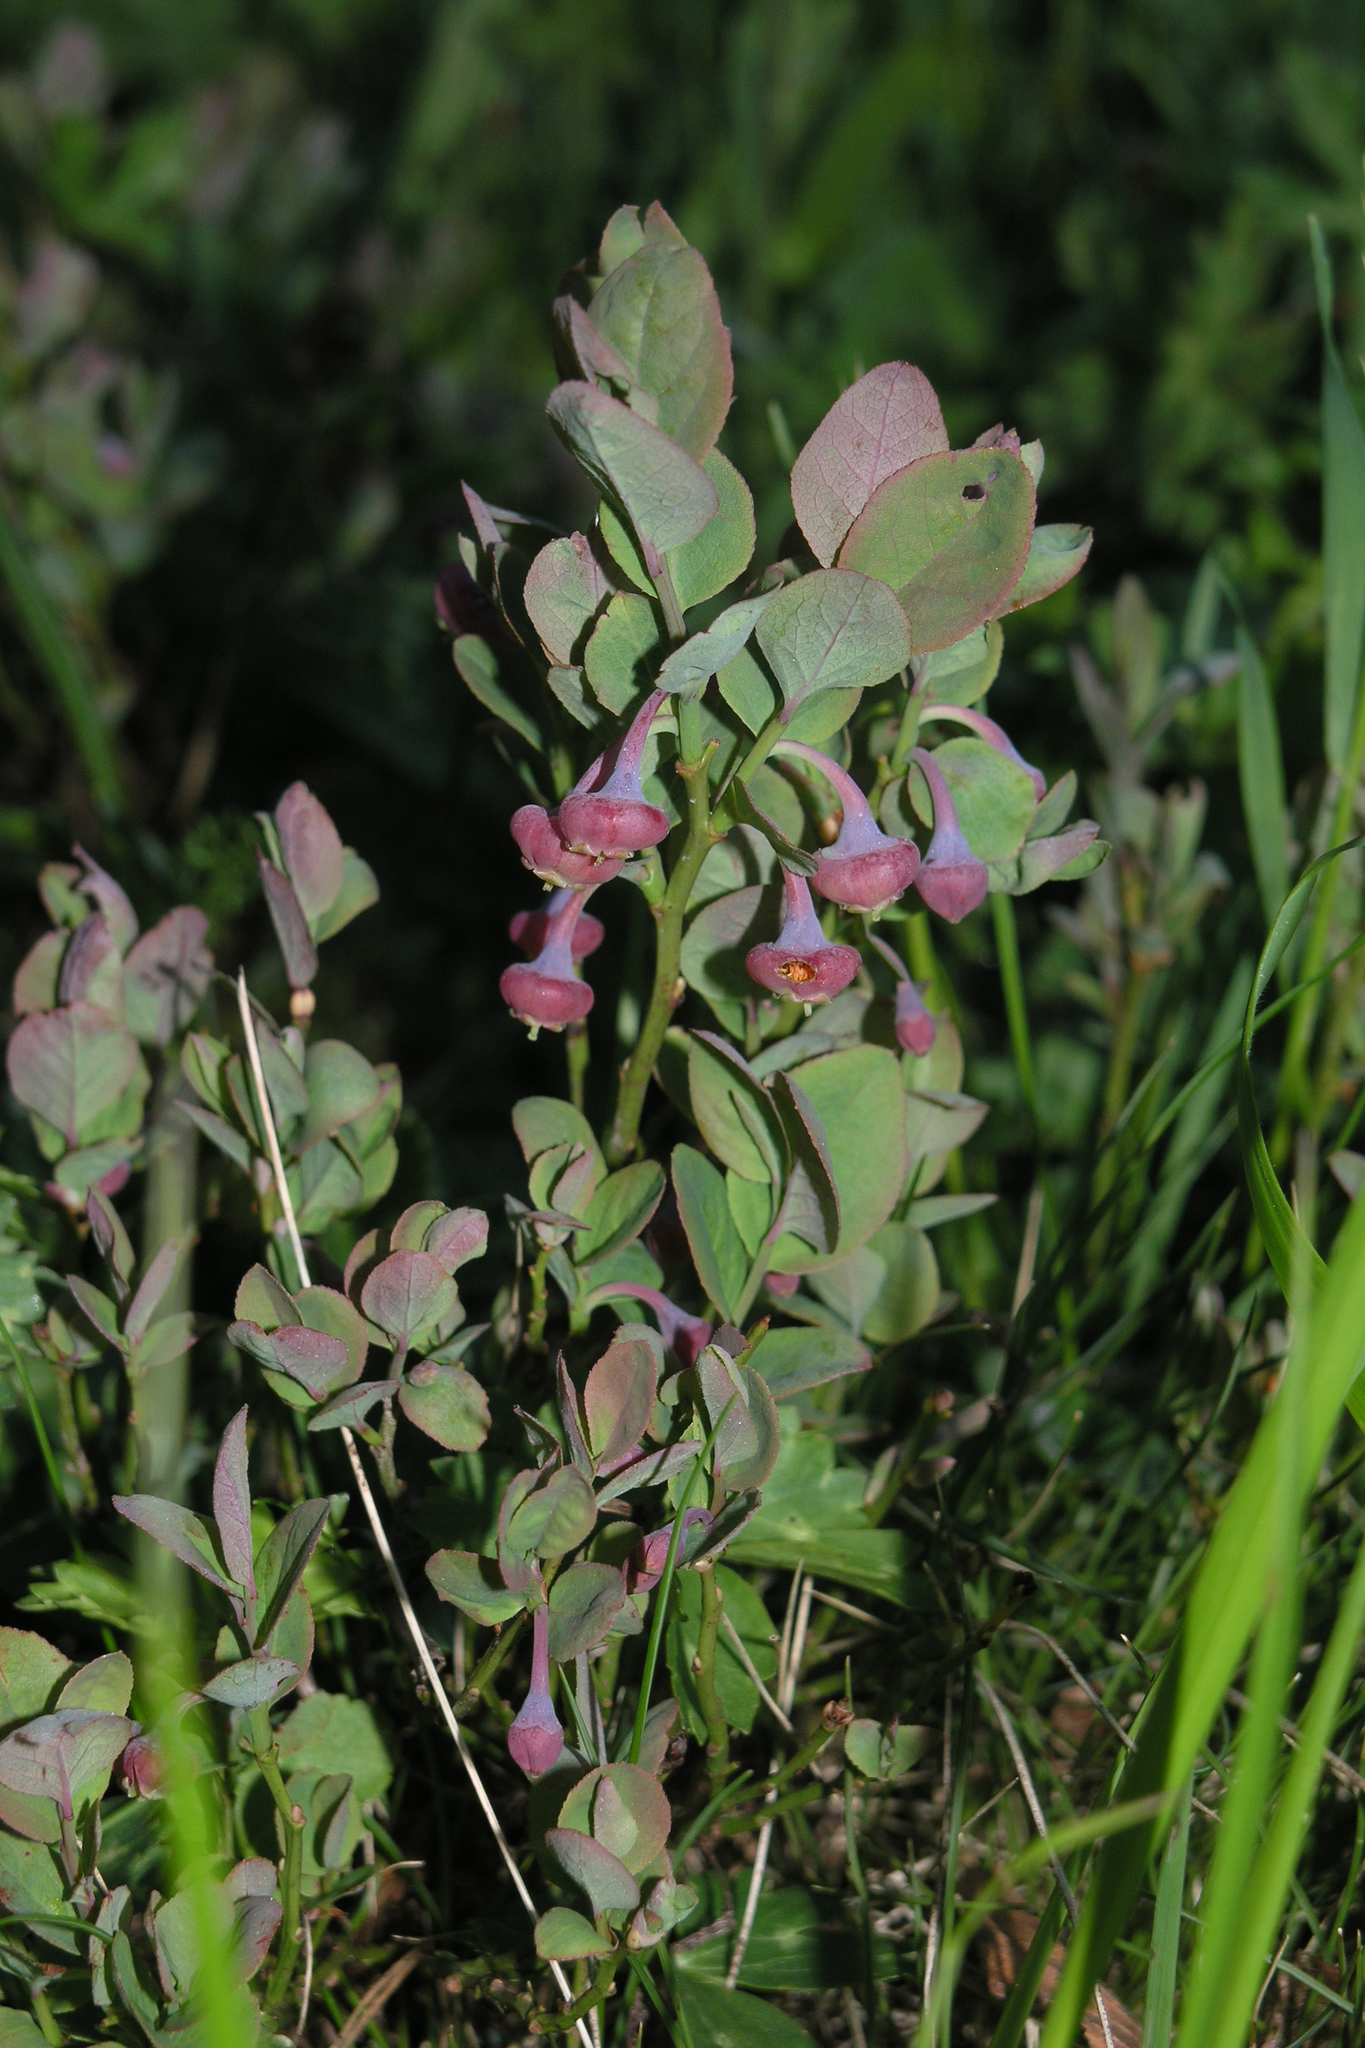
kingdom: Plantae
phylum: Tracheophyta
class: Magnoliopsida
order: Ericales
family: Ericaceae
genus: Vaccinium
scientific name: Vaccinium myrtillus
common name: Bilberry
